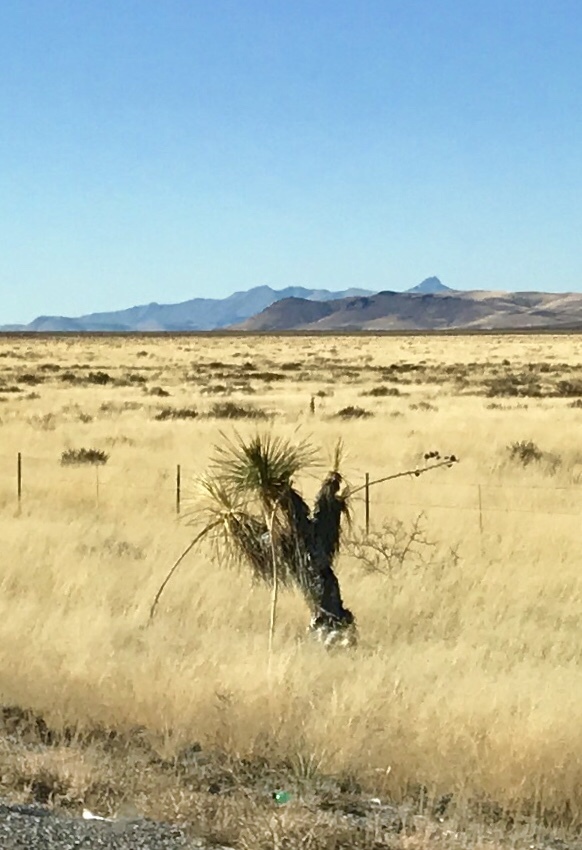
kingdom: Plantae
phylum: Tracheophyta
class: Liliopsida
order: Asparagales
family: Asparagaceae
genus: Yucca
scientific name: Yucca elata
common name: Palmella
